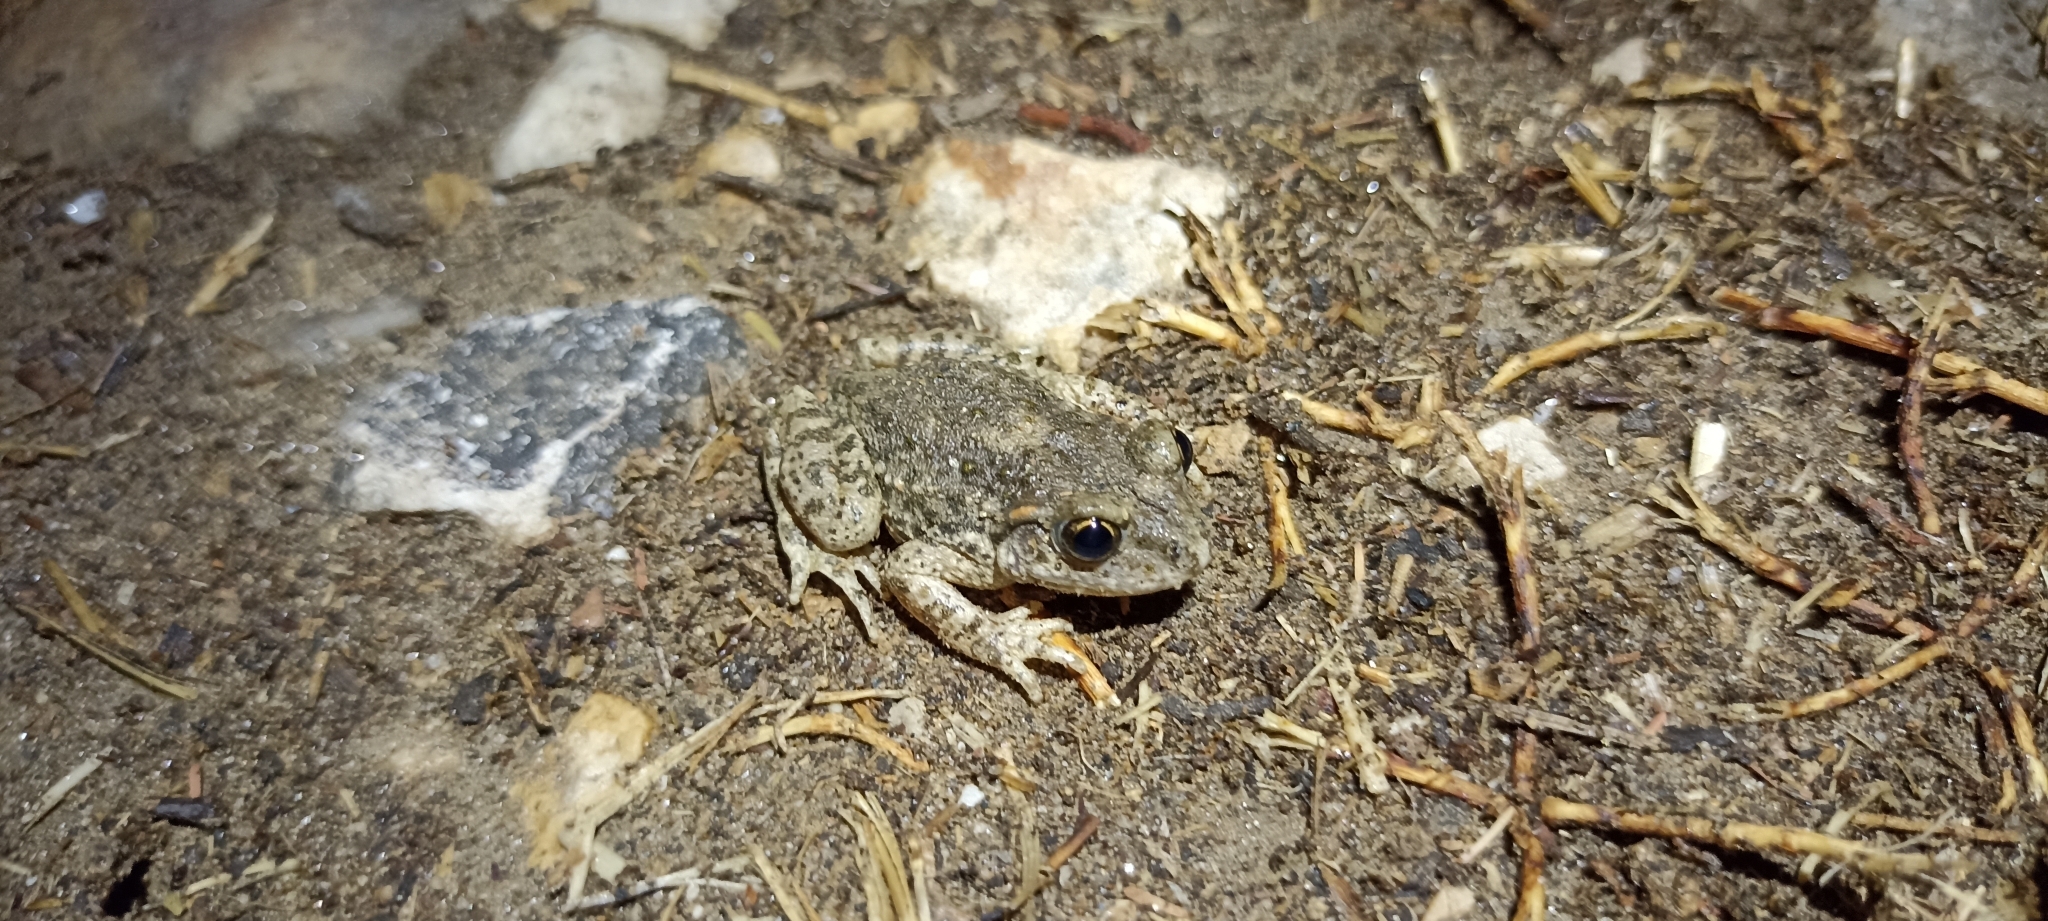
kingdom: Animalia
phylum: Chordata
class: Amphibia
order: Anura
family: Alytidae
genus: Alytes
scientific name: Alytes obstetricans
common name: Midwife toad
